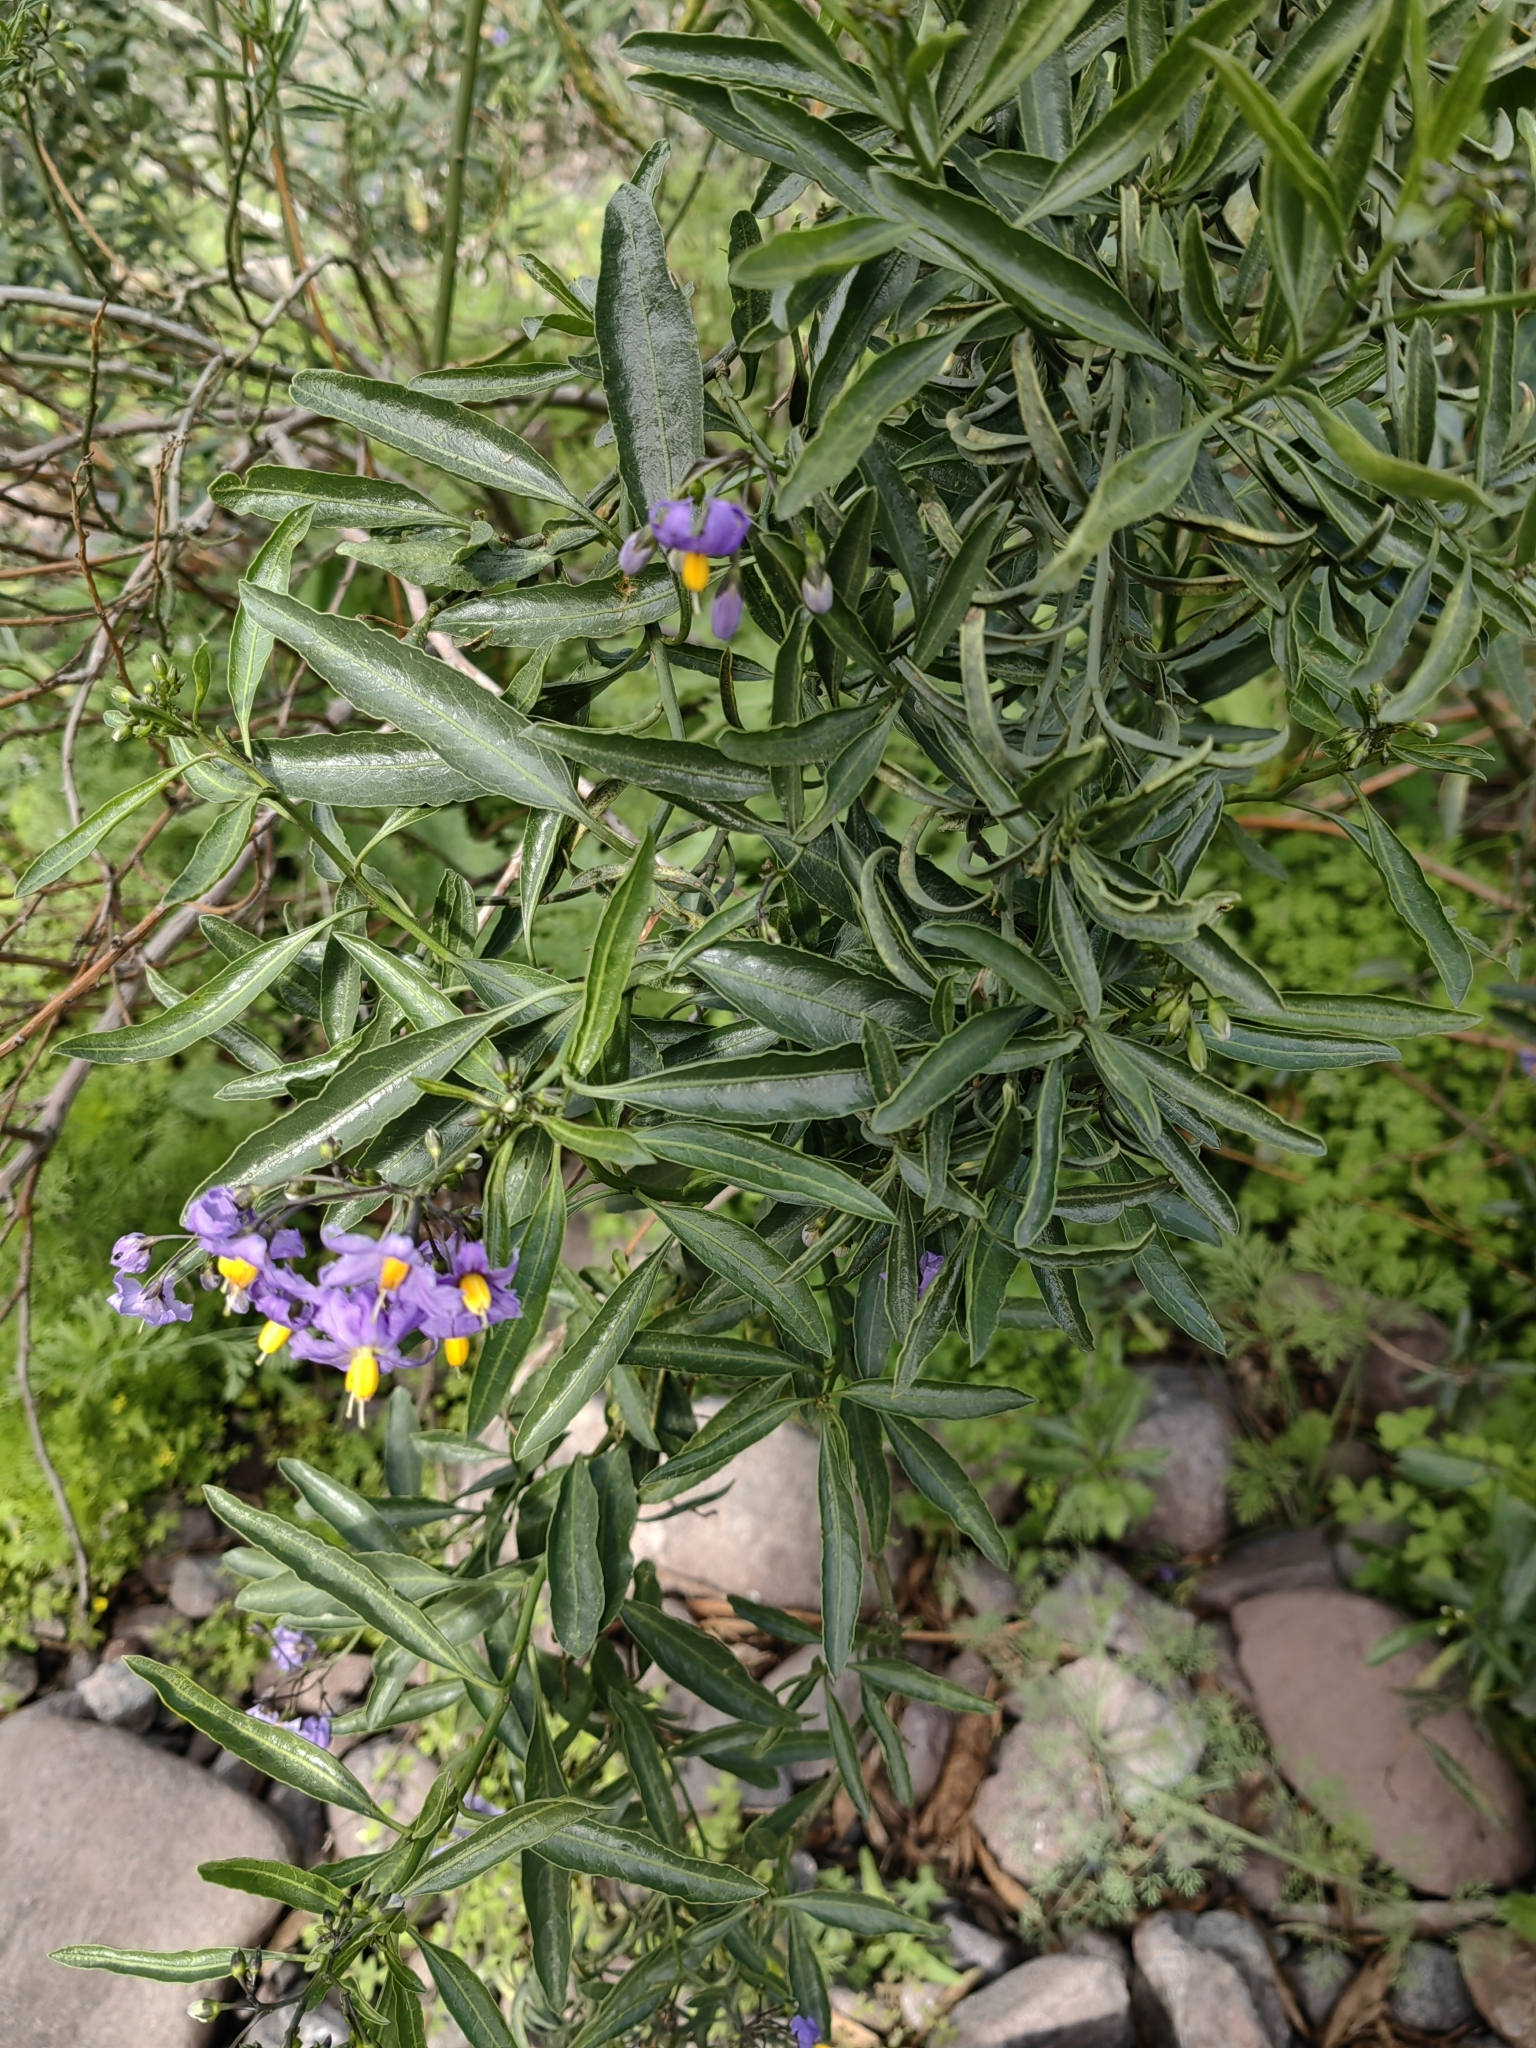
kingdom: Plantae
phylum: Tracheophyta
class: Magnoliopsida
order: Solanales
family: Solanaceae
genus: Solanum
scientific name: Solanum crispum
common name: Chilean nightshade
